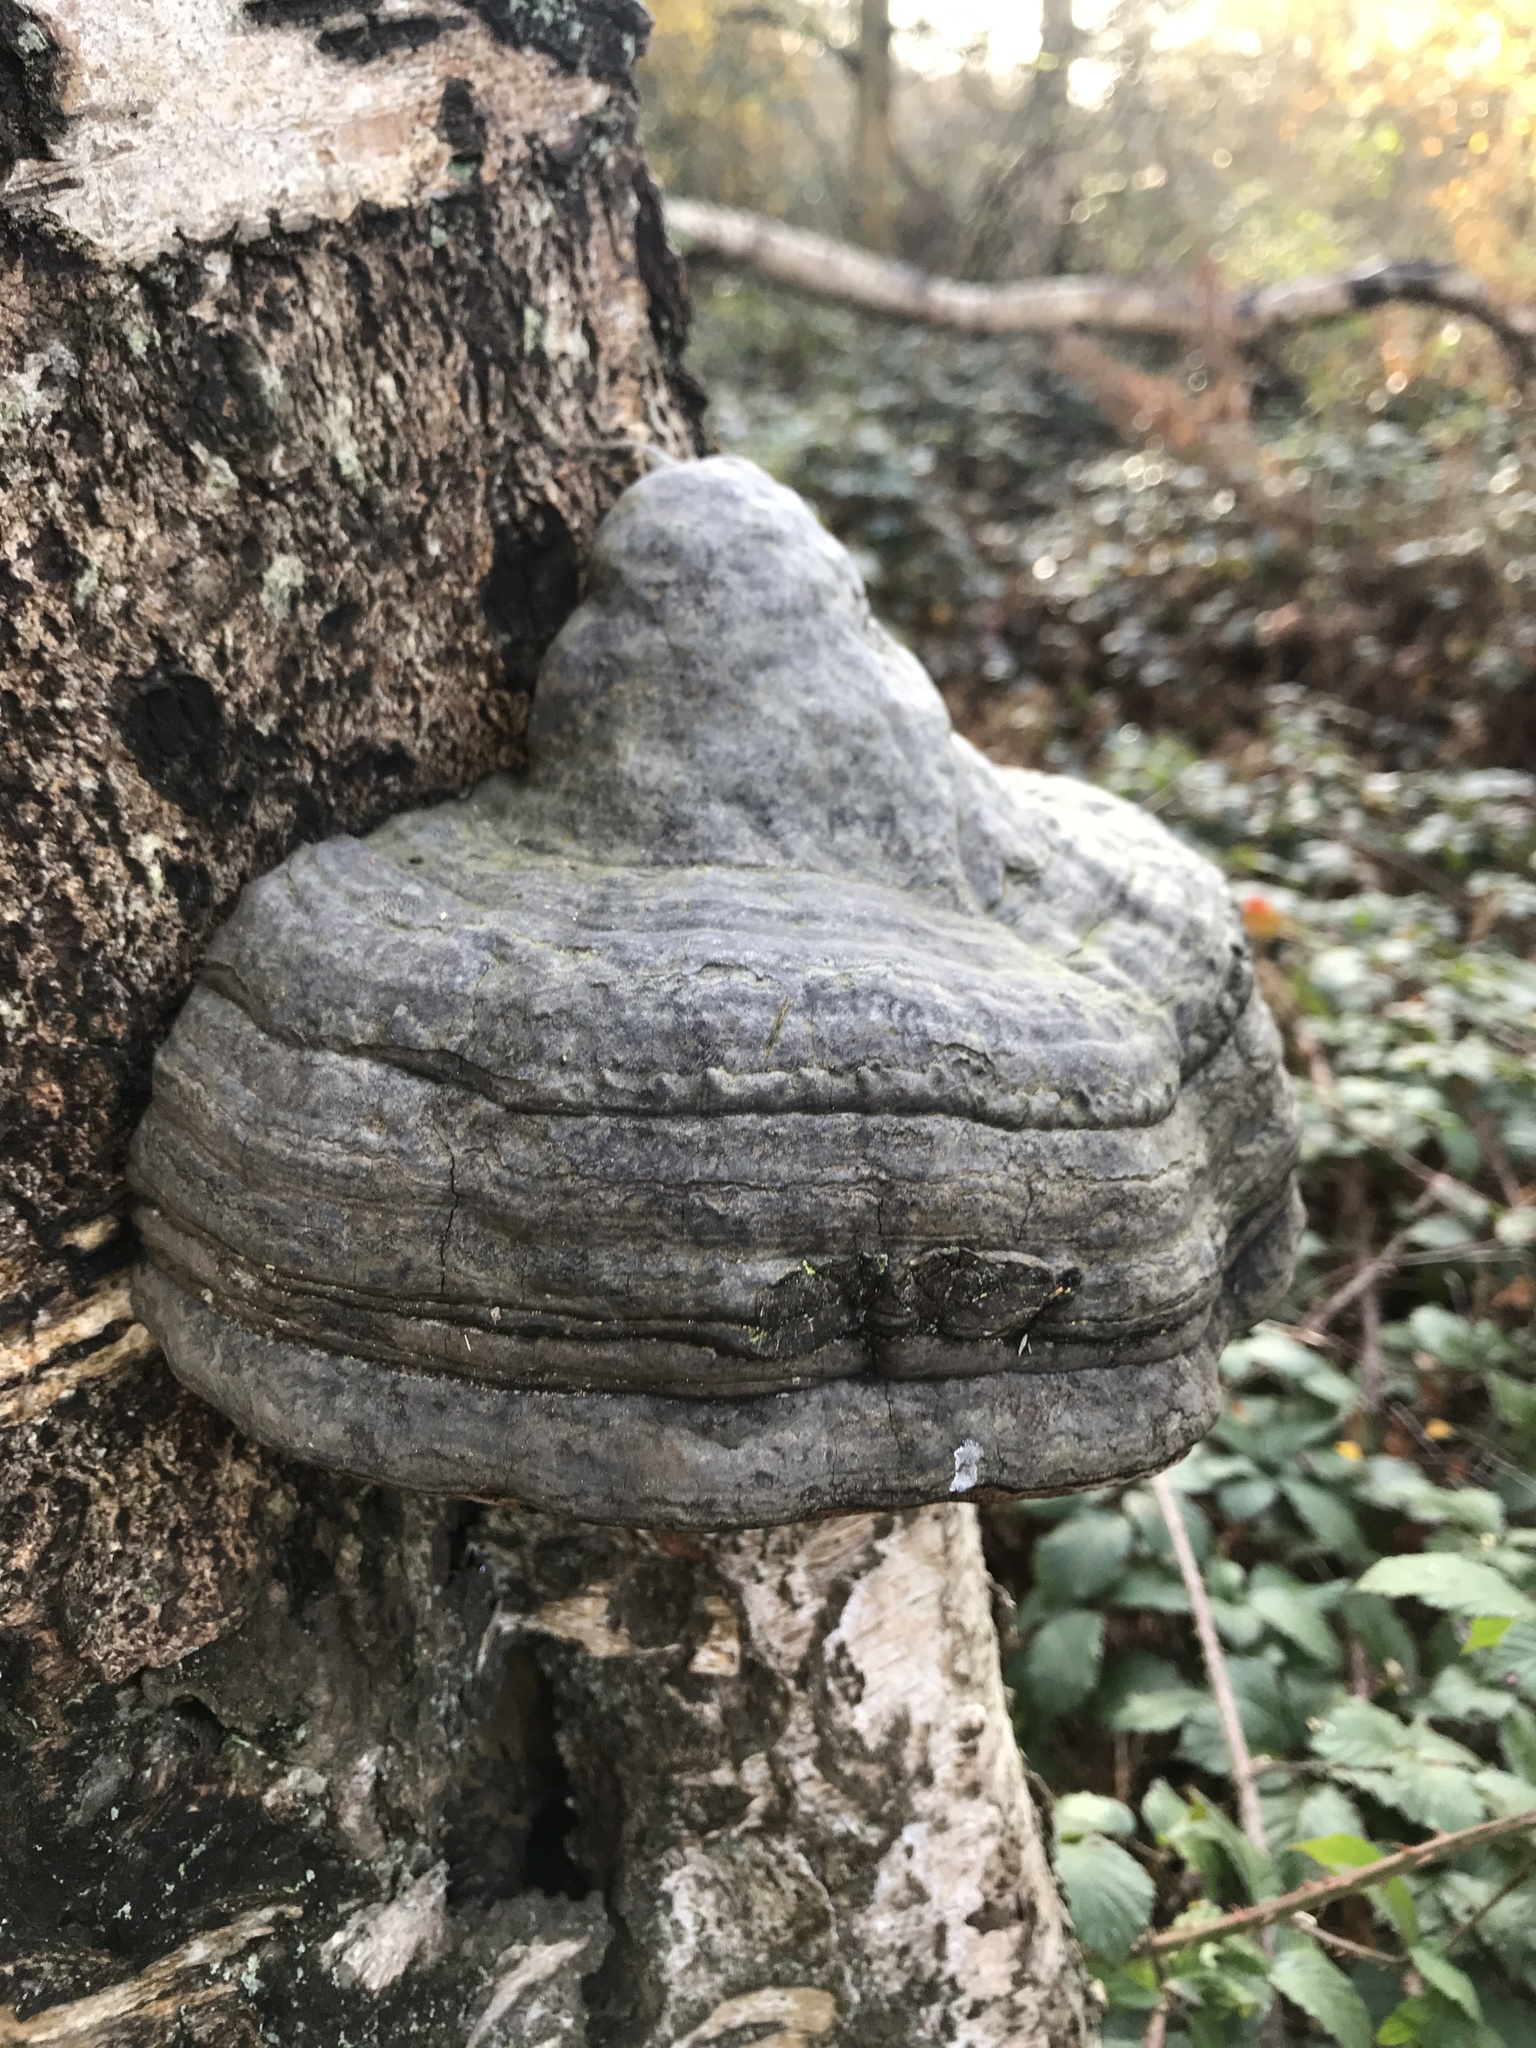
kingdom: Fungi
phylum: Basidiomycota
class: Agaricomycetes
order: Polyporales
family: Polyporaceae
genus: Fomes
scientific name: Fomes fomentarius
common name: Hoof fungus
